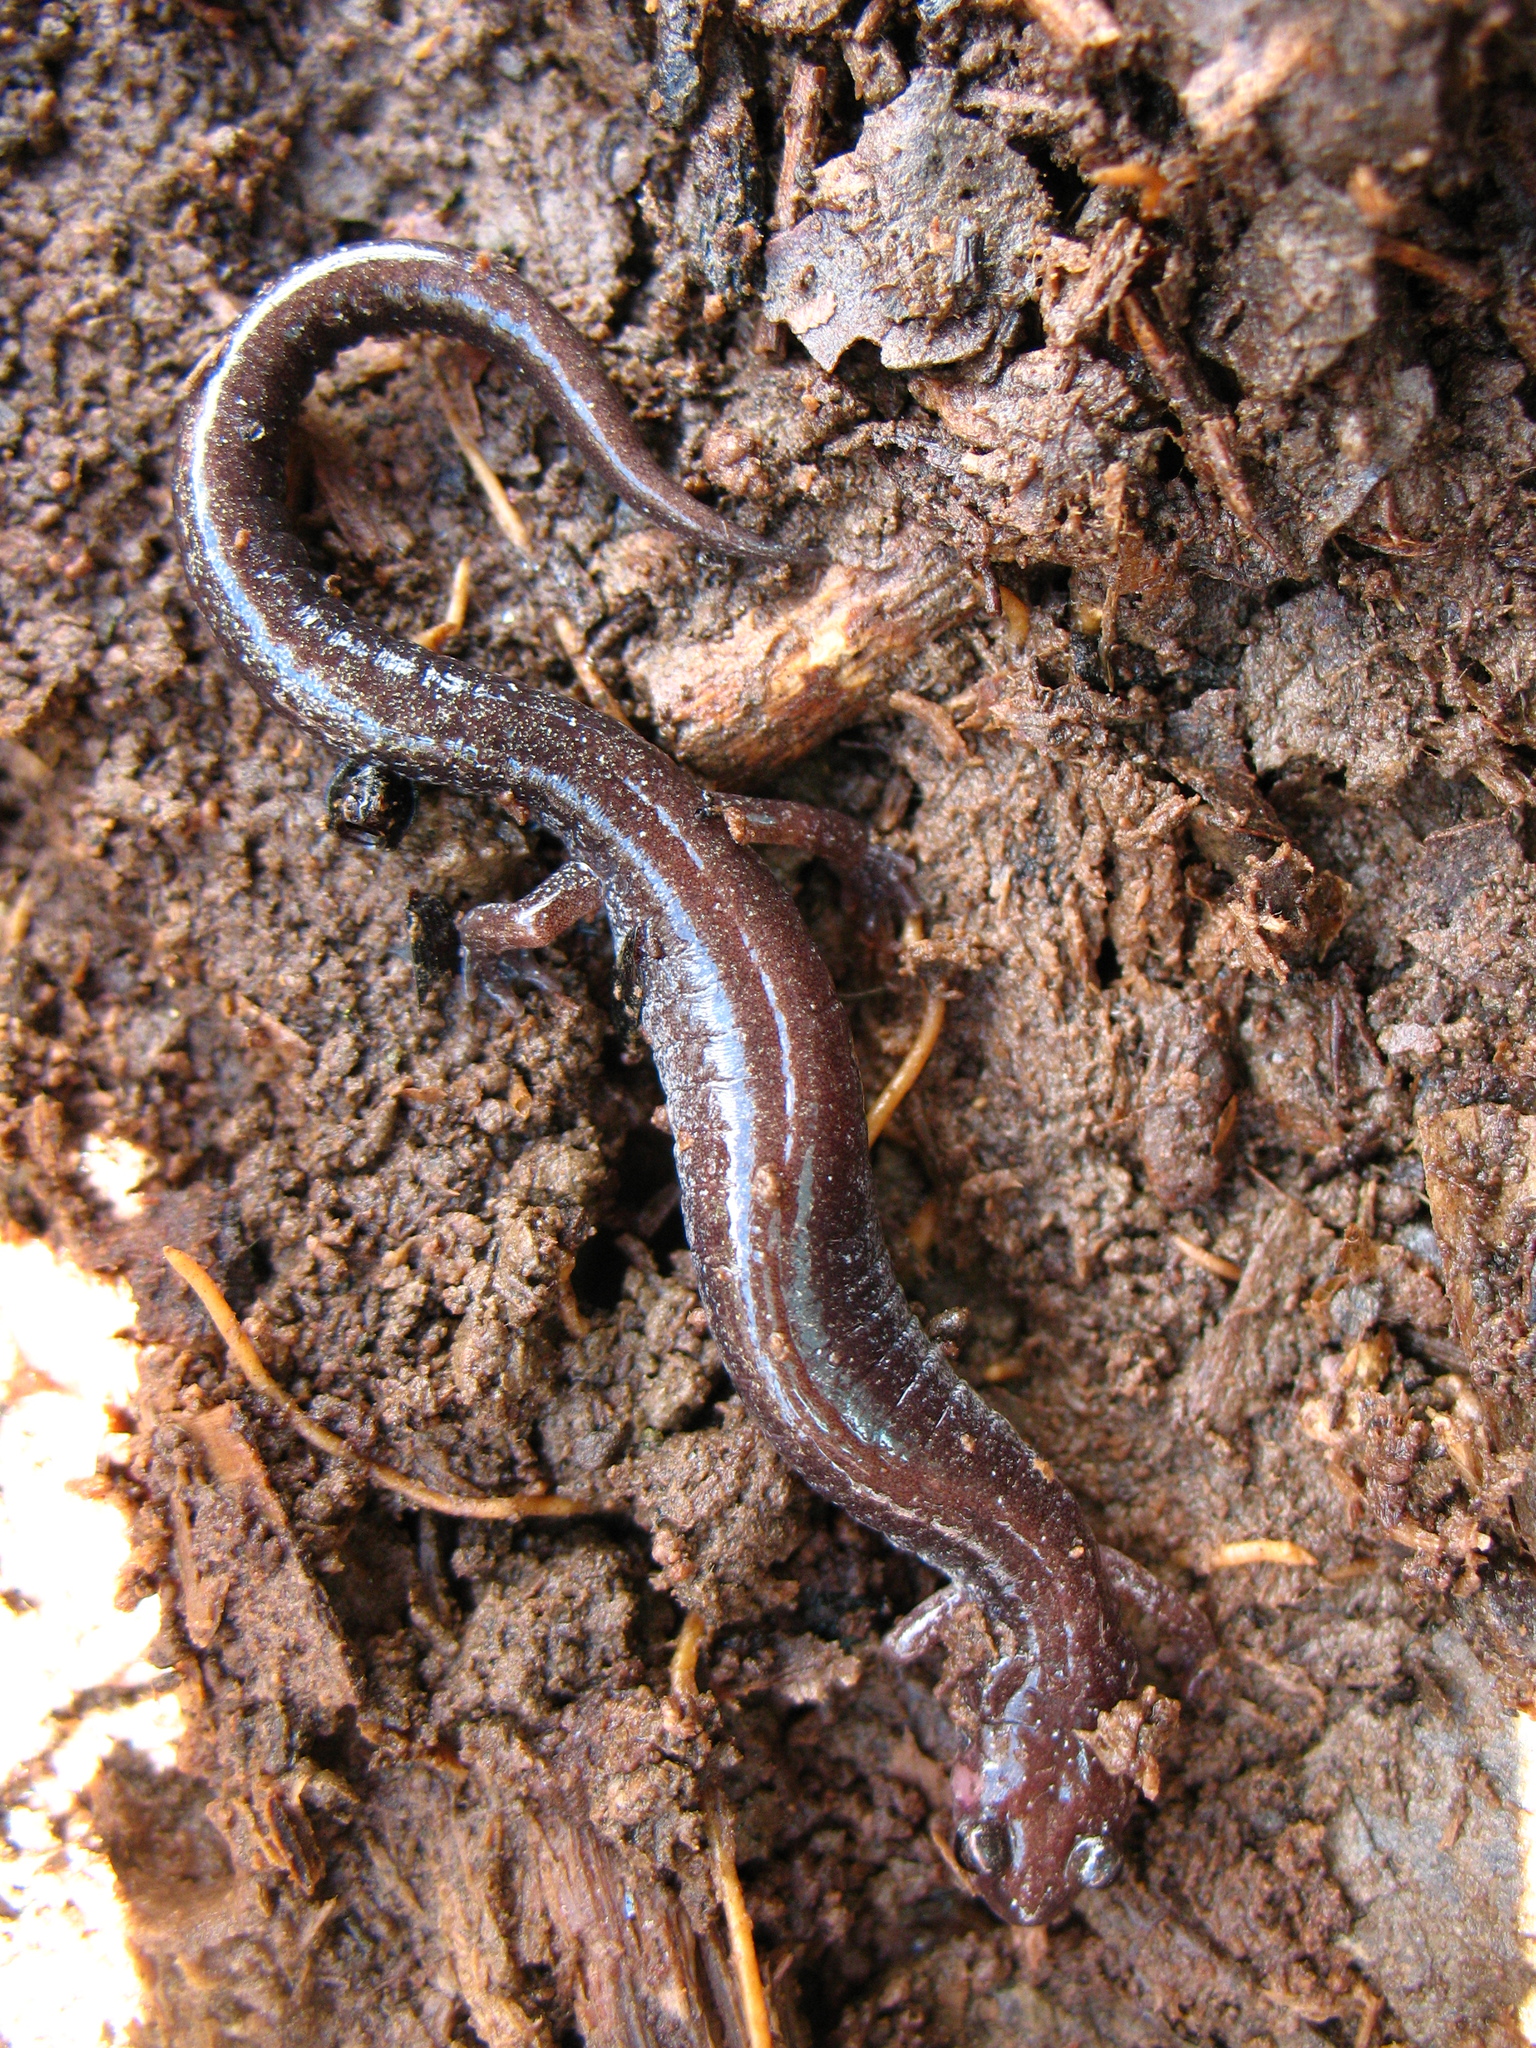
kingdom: Animalia
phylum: Chordata
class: Amphibia
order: Caudata
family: Plethodontidae
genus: Plethodon
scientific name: Plethodon cinereus
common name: Redback salamander
